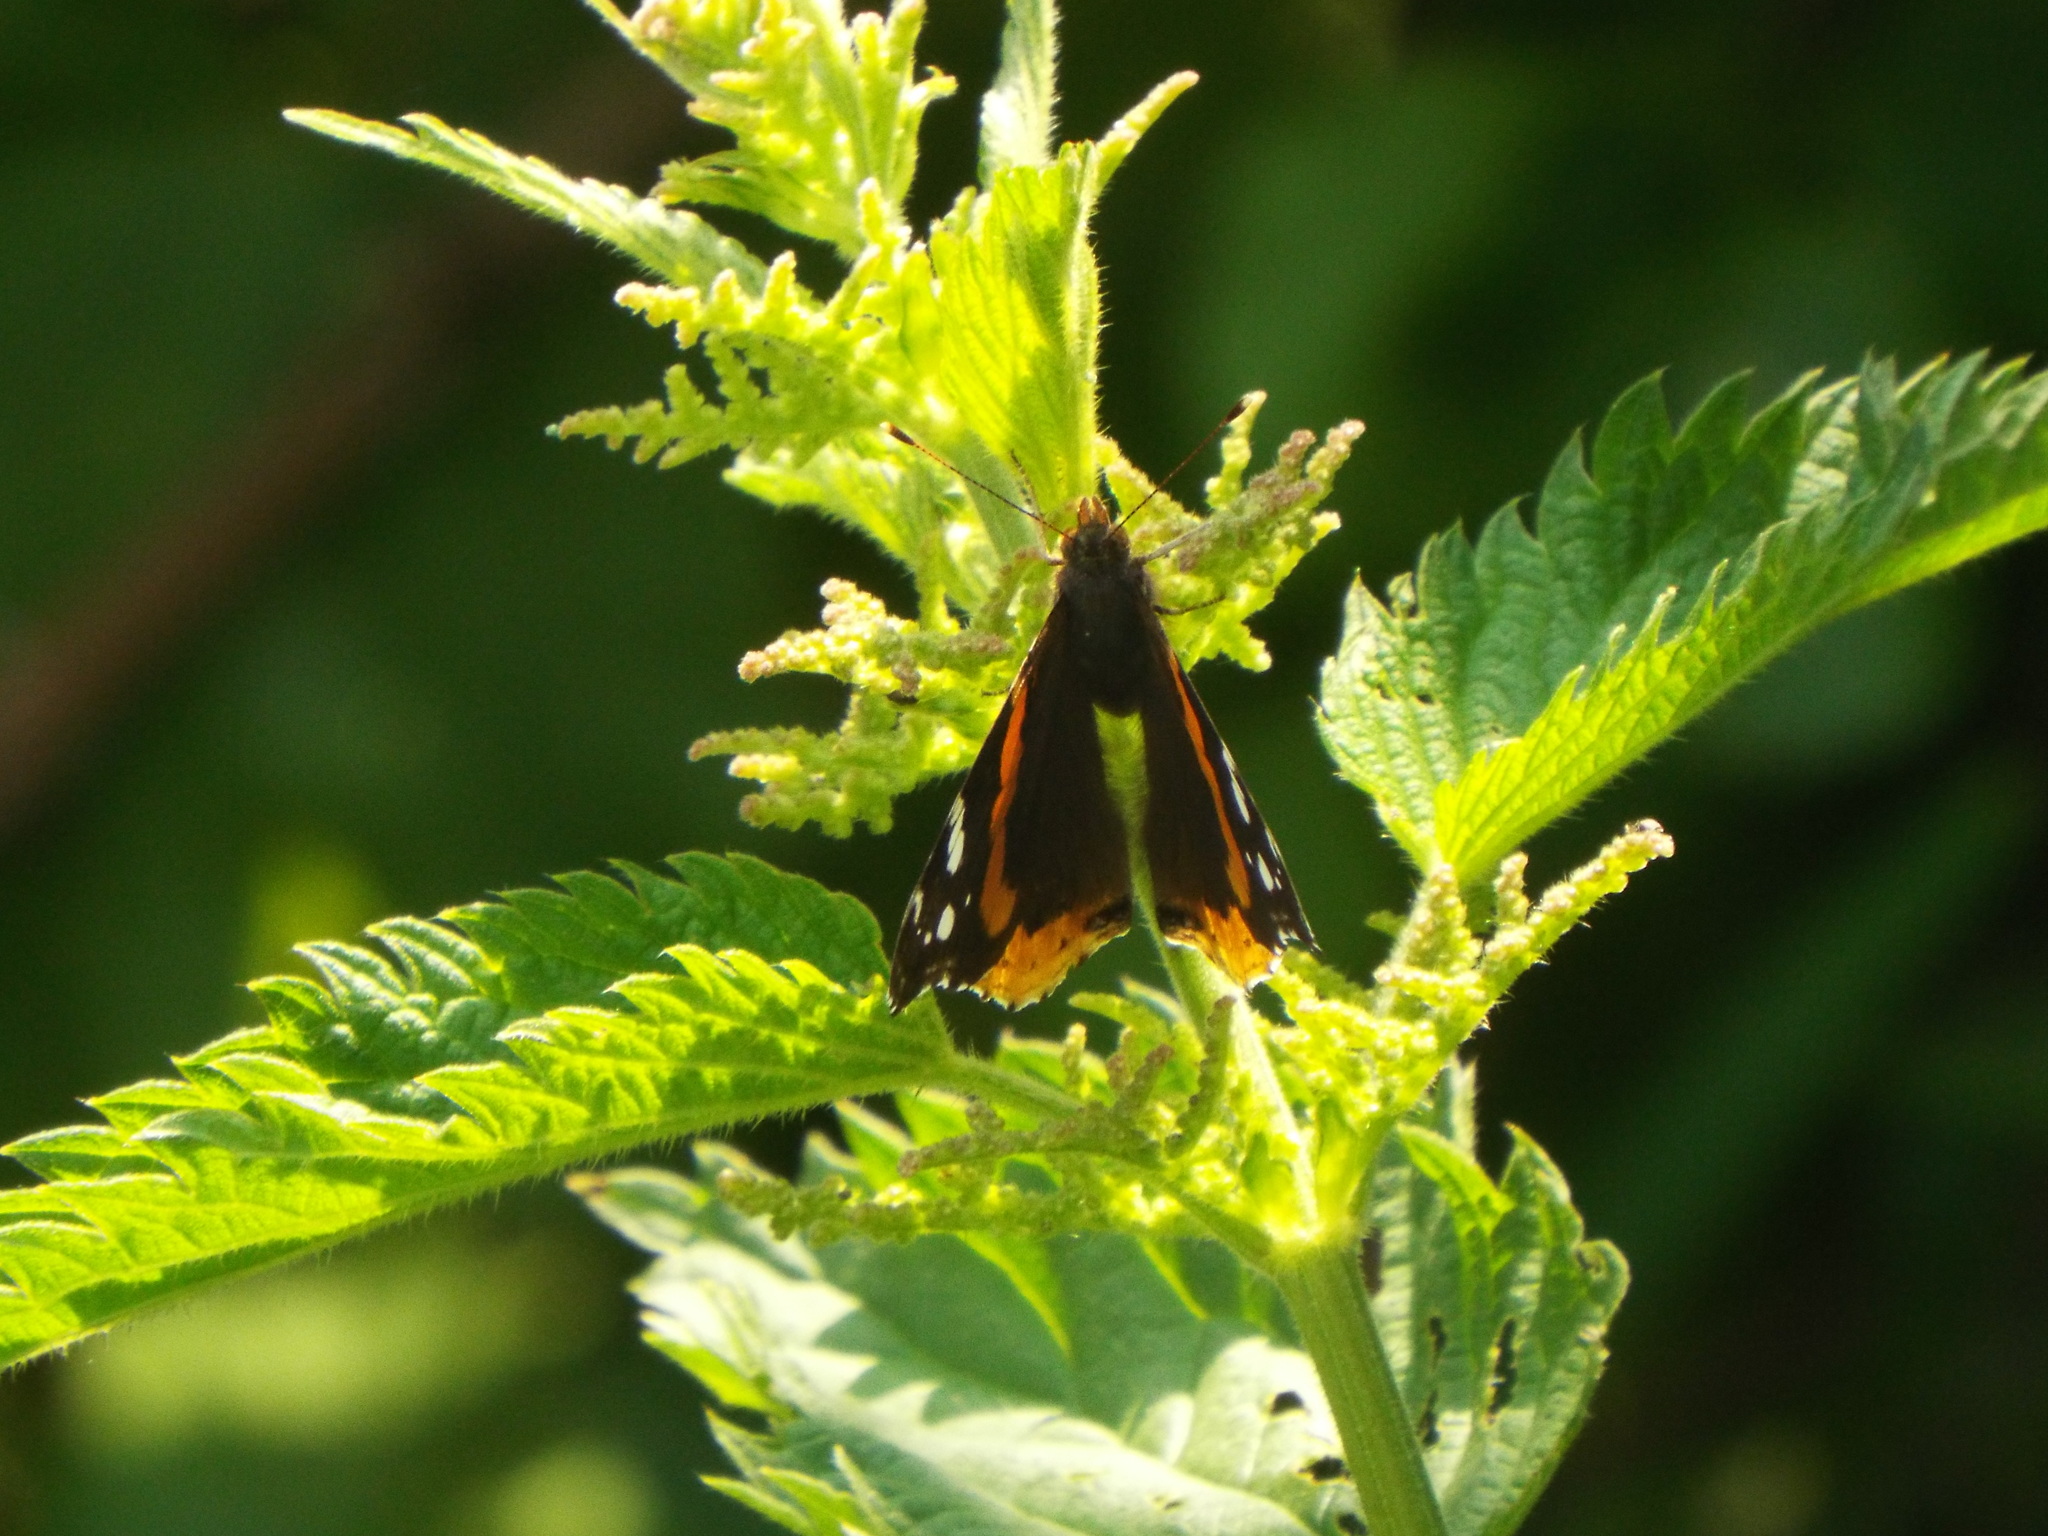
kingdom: Animalia
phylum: Arthropoda
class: Insecta
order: Lepidoptera
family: Nymphalidae
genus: Vanessa
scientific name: Vanessa atalanta
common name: Red admiral
